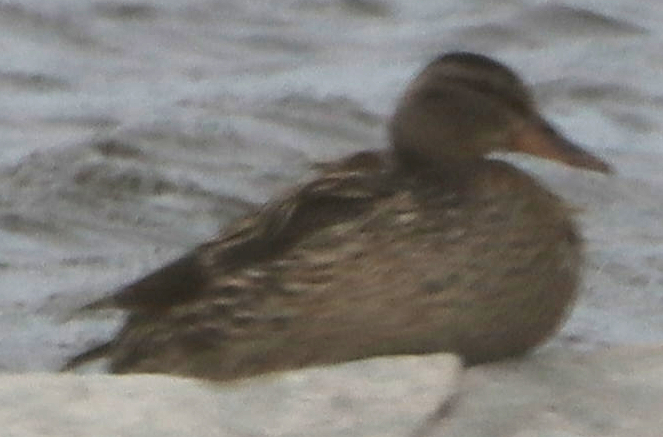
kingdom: Animalia
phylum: Chordata
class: Aves
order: Anseriformes
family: Anatidae
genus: Anas
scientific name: Anas platyrhynchos
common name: Mallard
